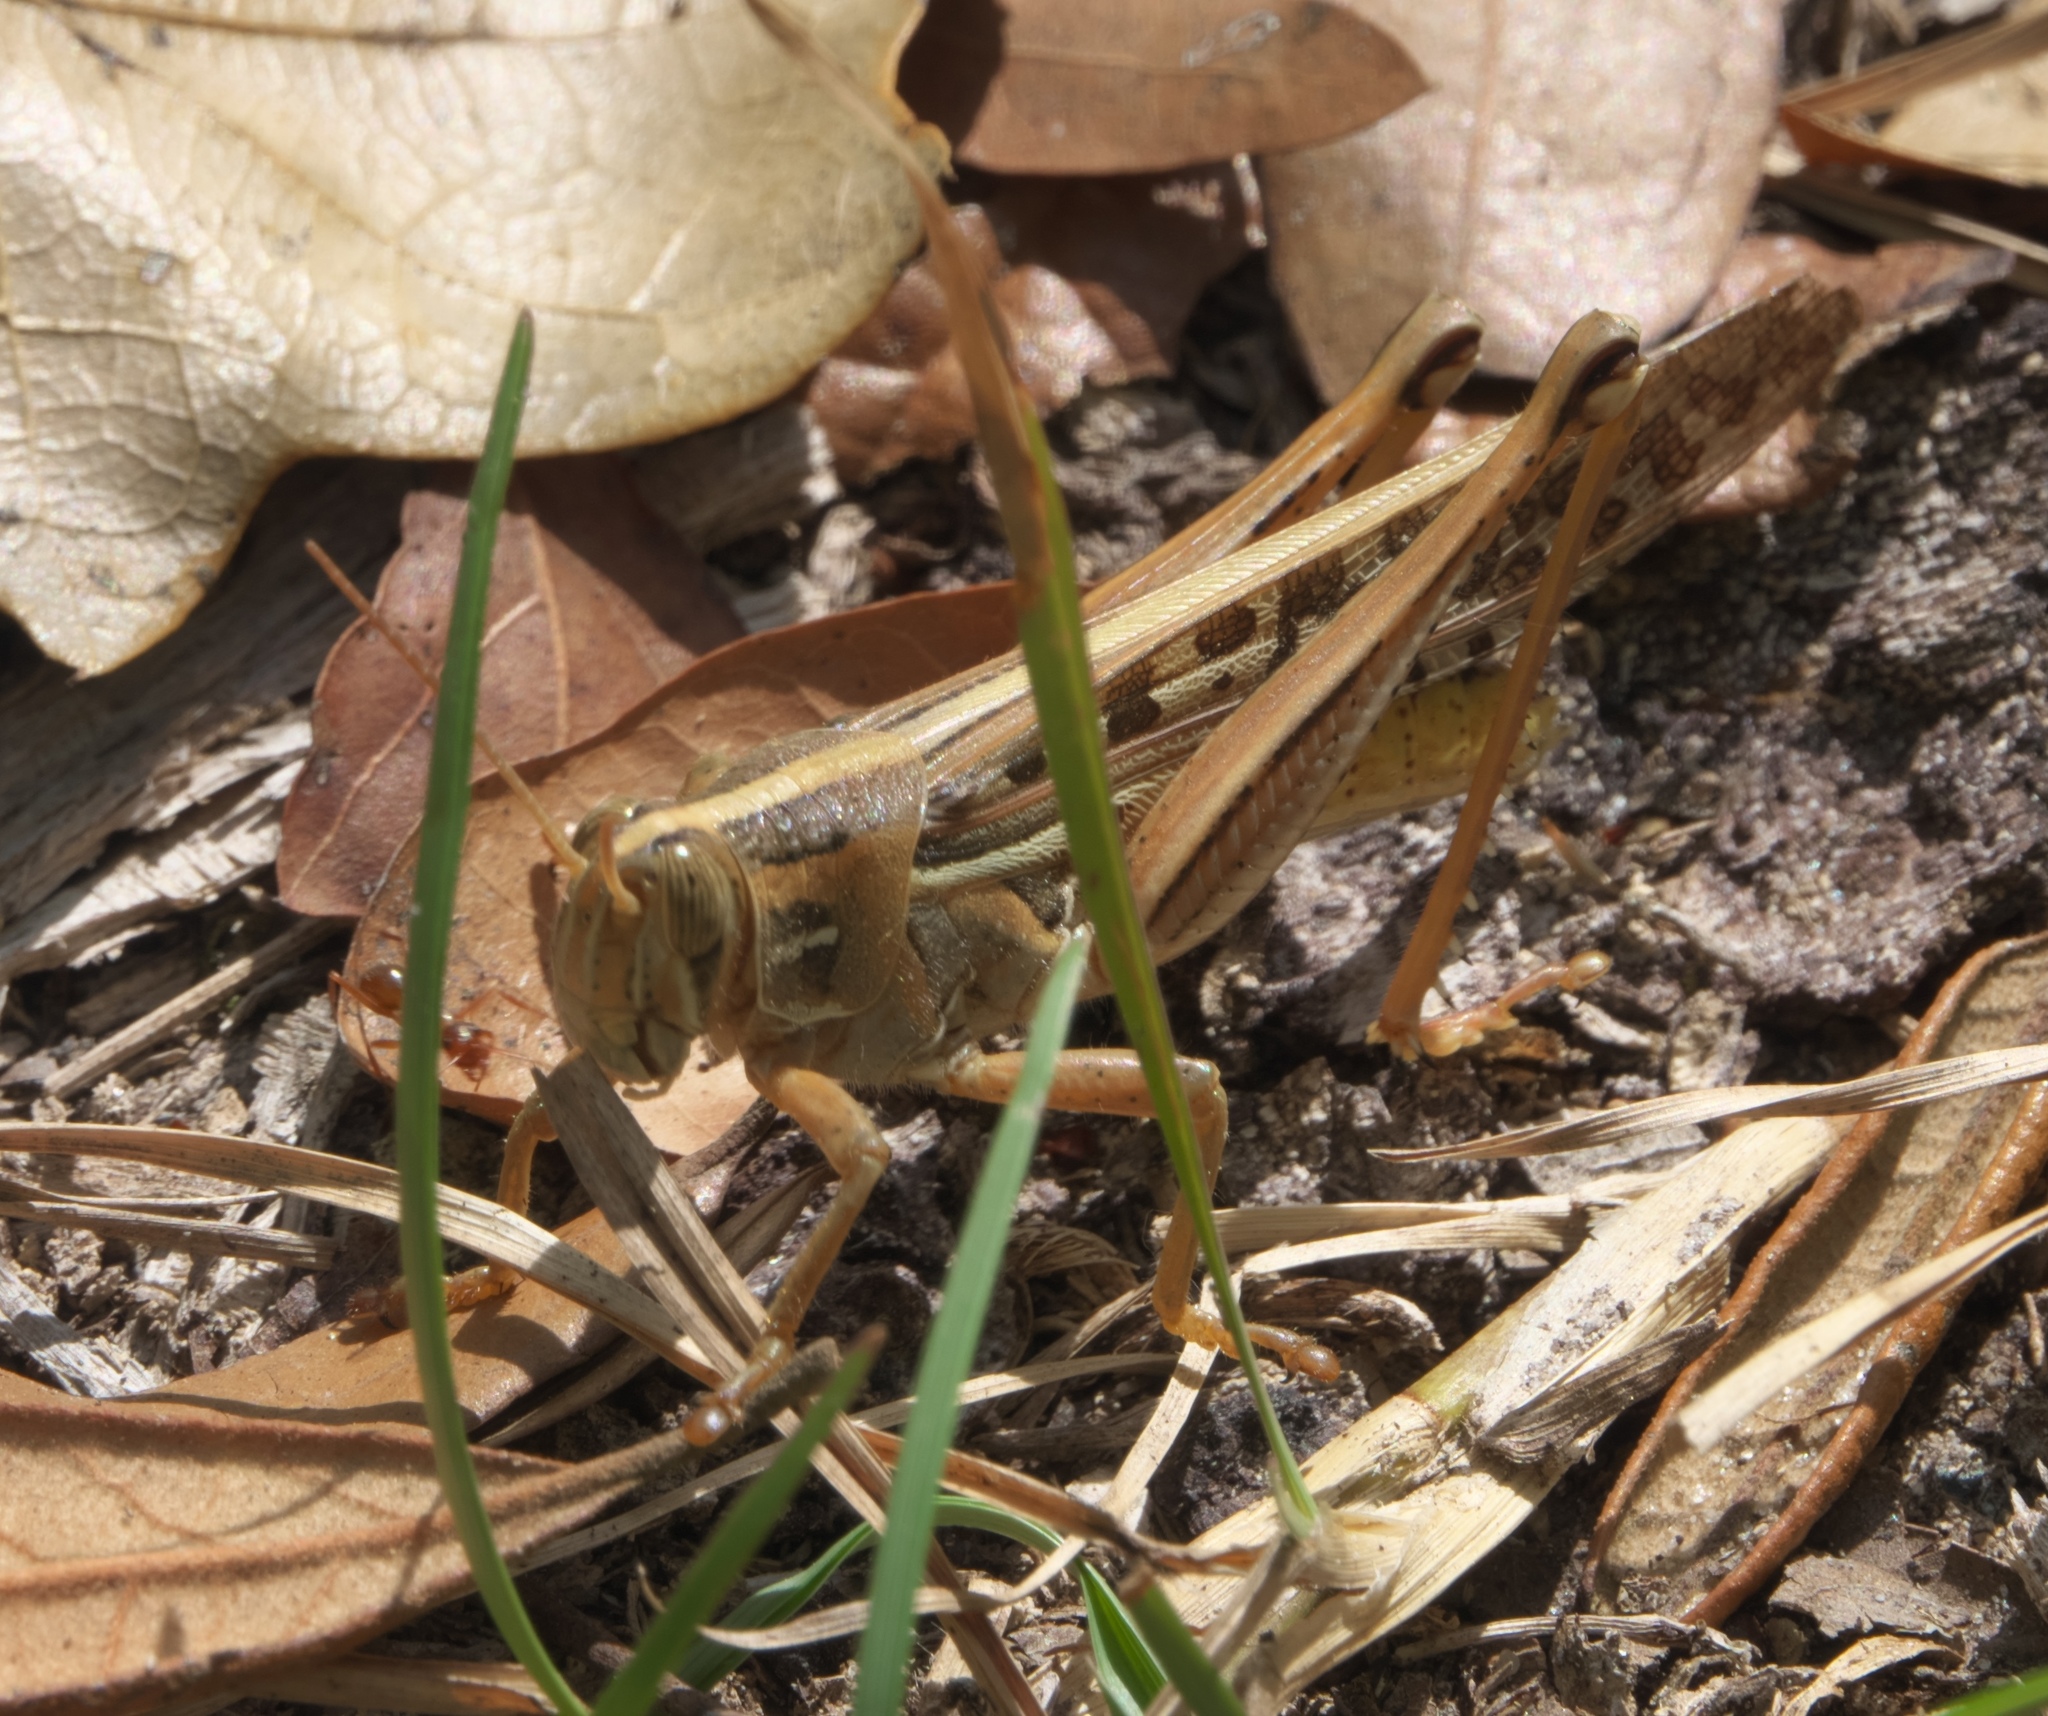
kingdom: Animalia
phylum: Arthropoda
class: Insecta
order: Orthoptera
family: Acrididae
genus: Schistocerca
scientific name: Schistocerca americana
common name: American bird locust
